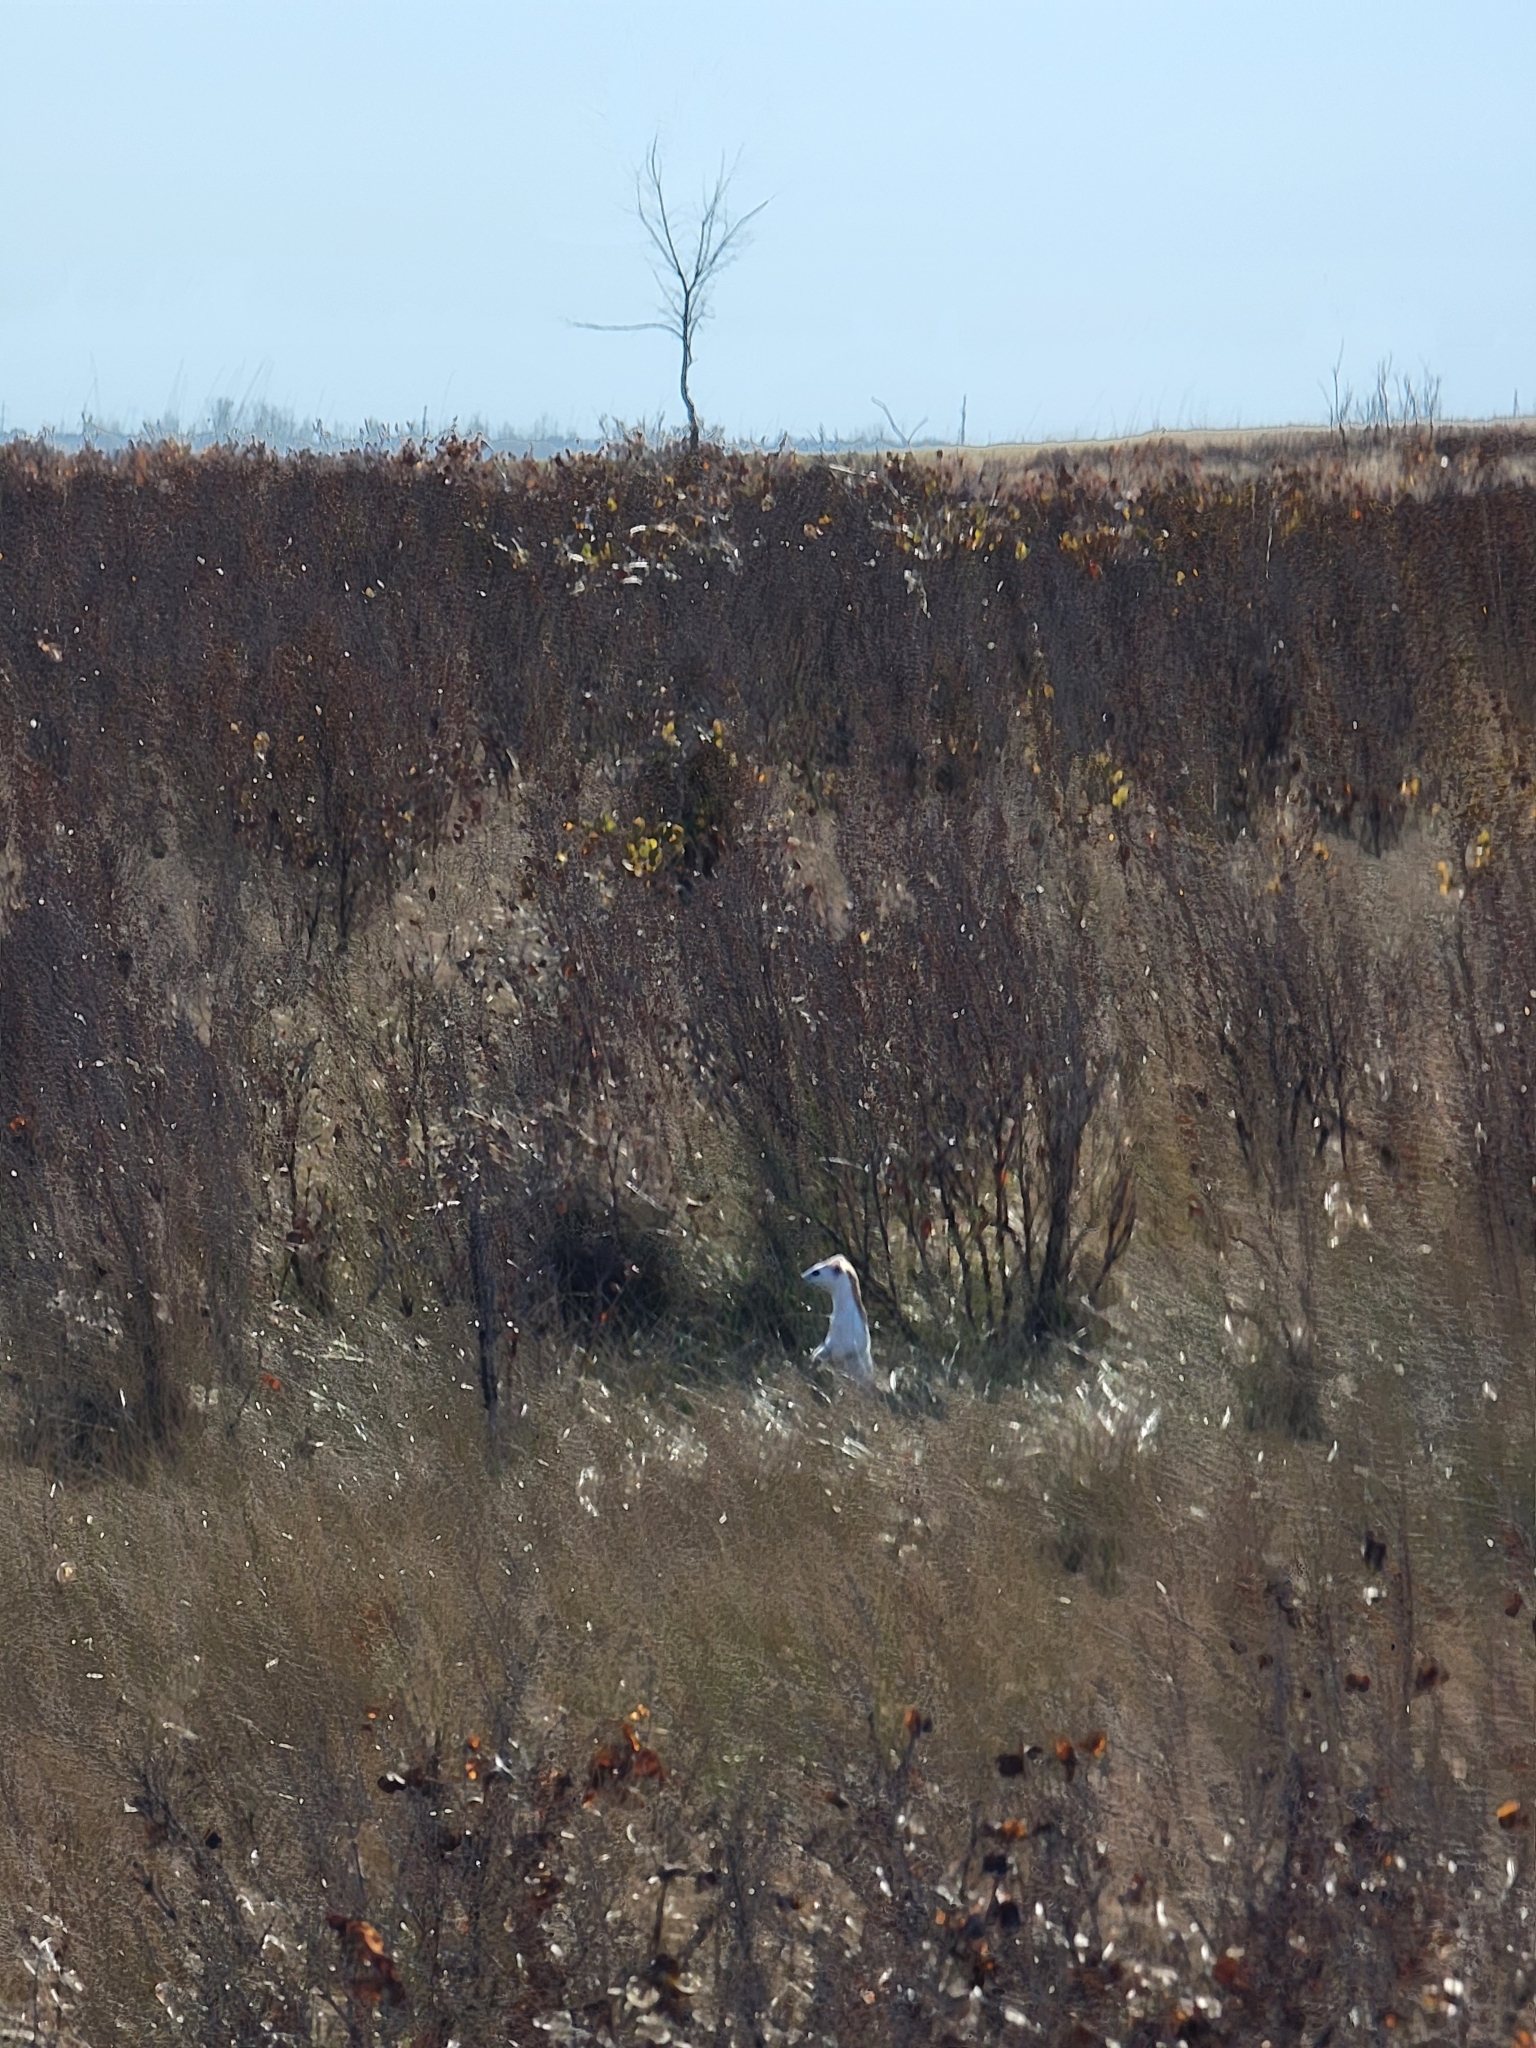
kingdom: Animalia
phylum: Chordata
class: Mammalia
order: Carnivora
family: Mustelidae
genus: Mustela
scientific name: Mustela
